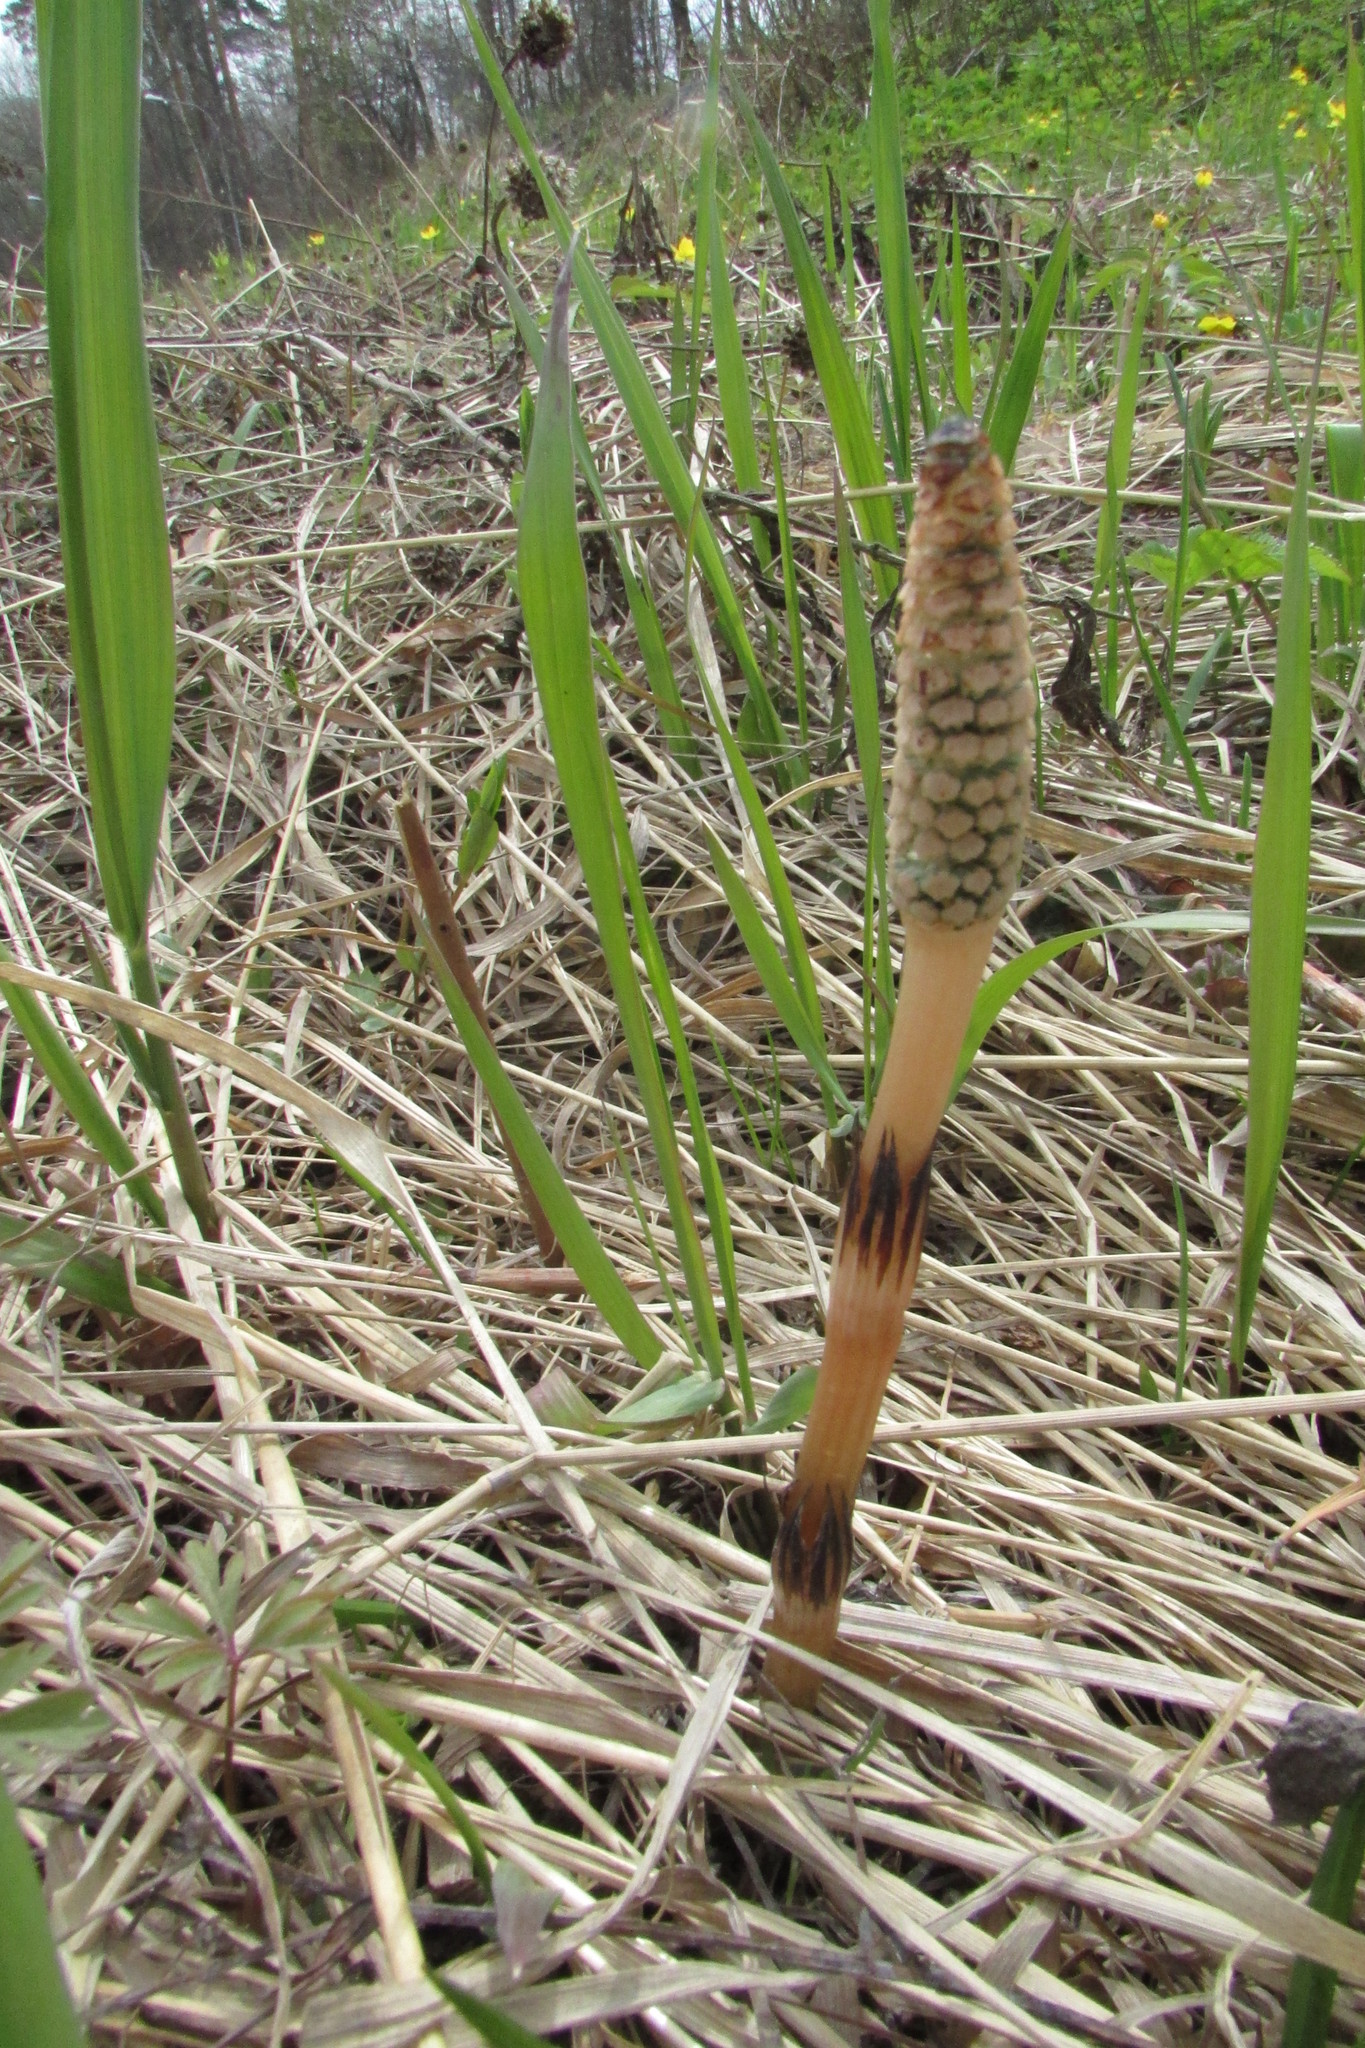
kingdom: Plantae
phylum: Tracheophyta
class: Polypodiopsida
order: Equisetales
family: Equisetaceae
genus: Equisetum
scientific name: Equisetum arvense
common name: Field horsetail
